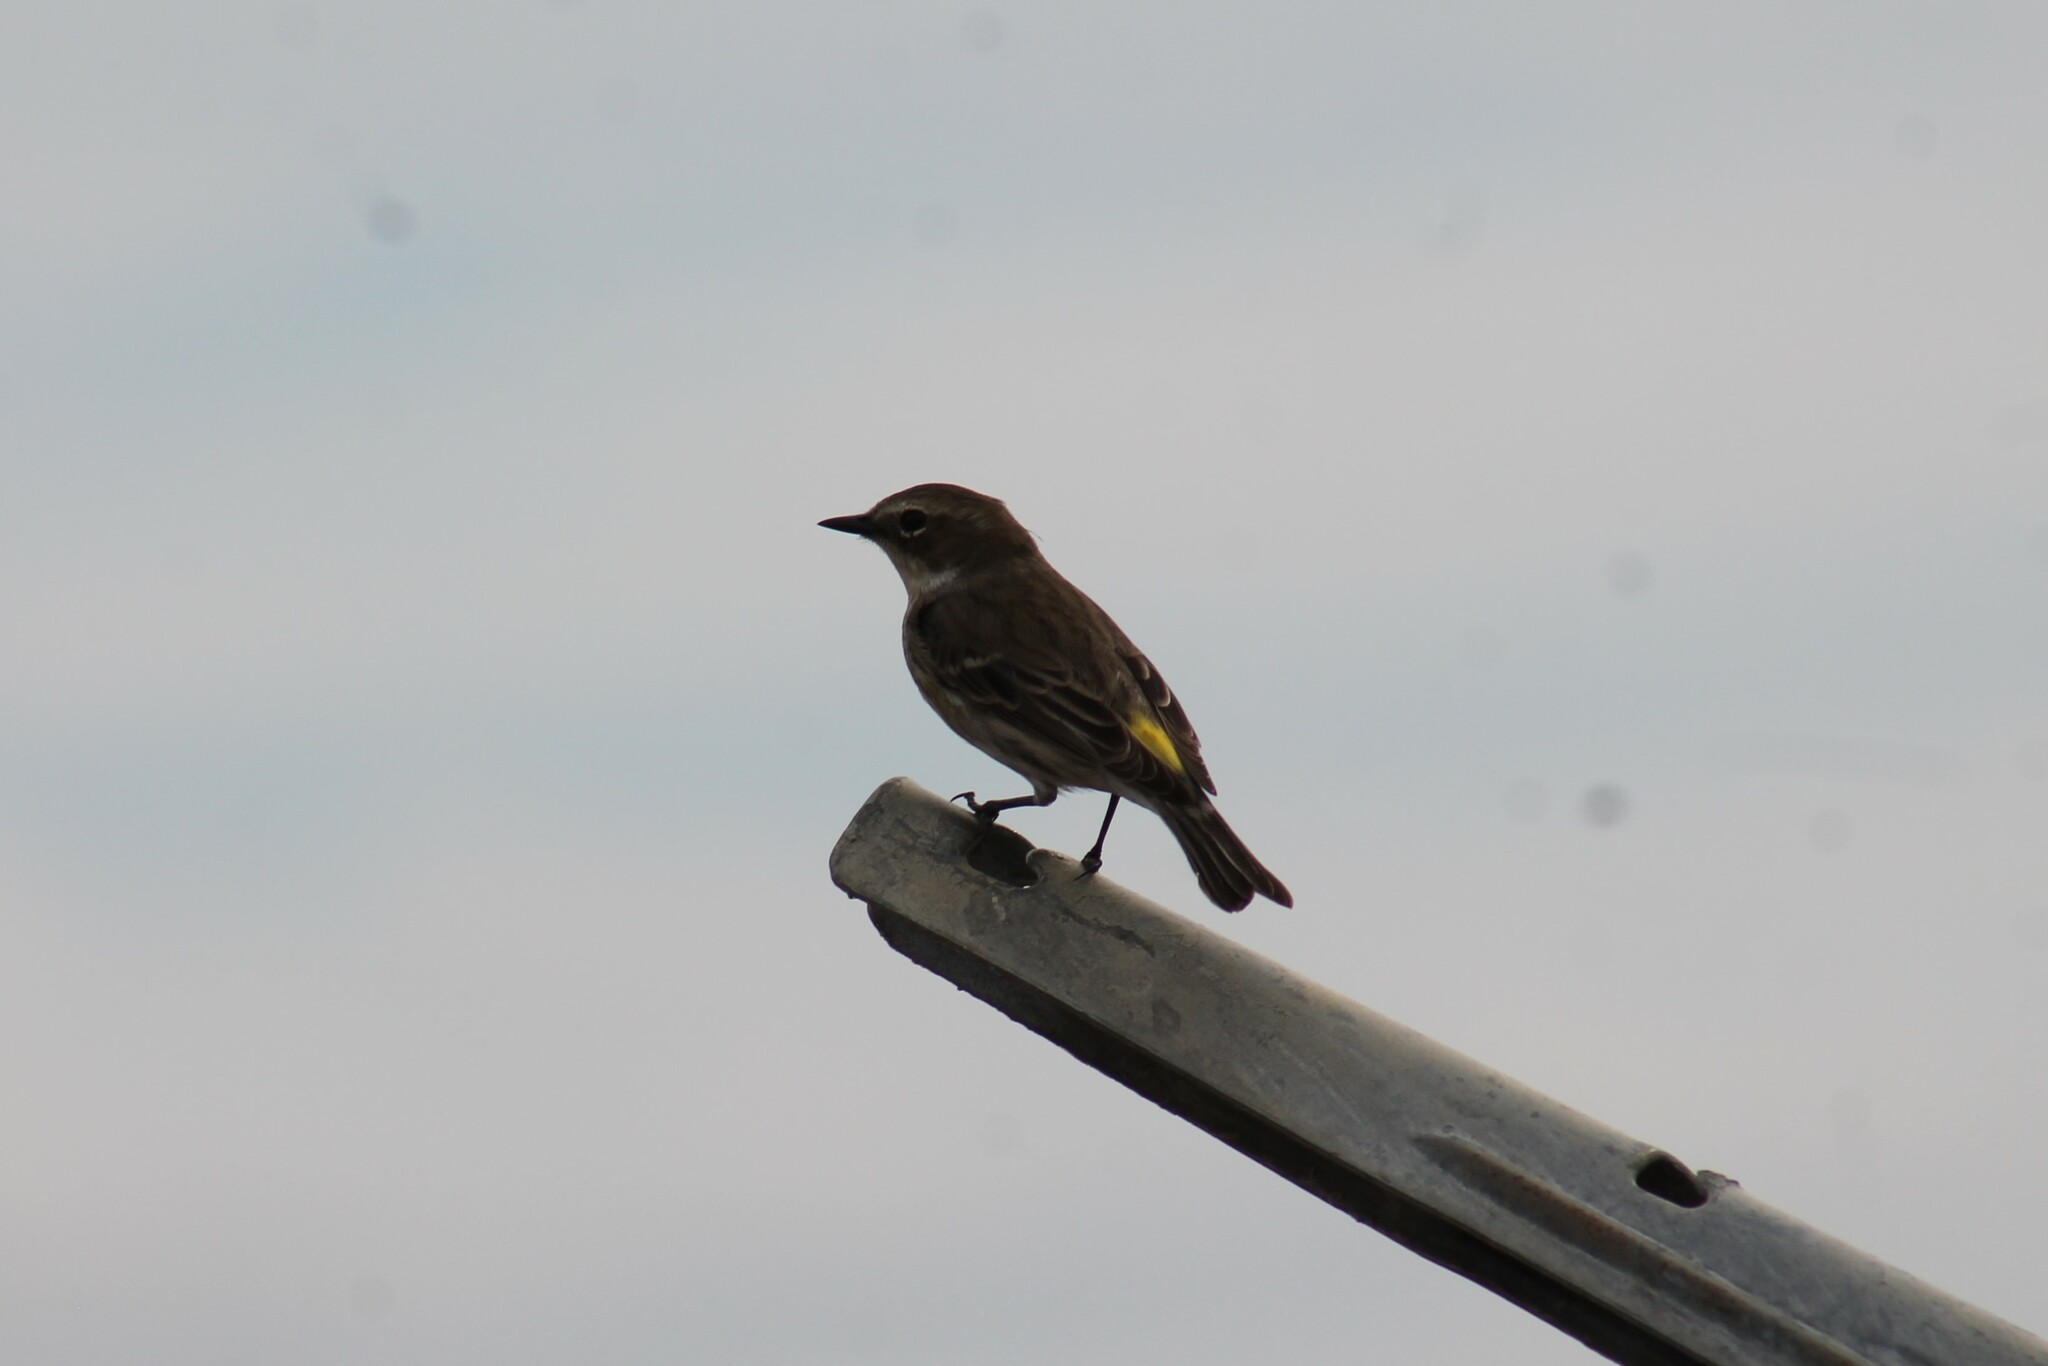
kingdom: Animalia
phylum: Chordata
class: Aves
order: Passeriformes
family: Parulidae
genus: Setophaga
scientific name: Setophaga coronata
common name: Myrtle warbler
